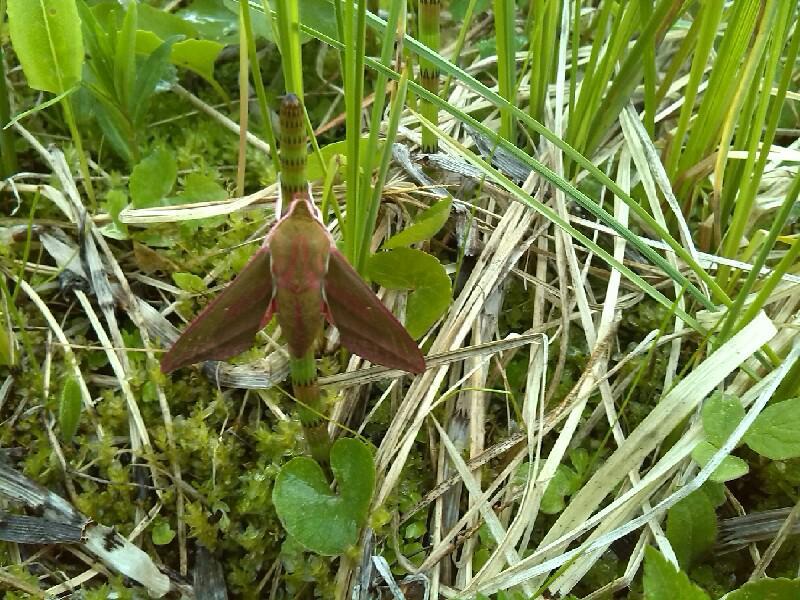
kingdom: Animalia
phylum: Arthropoda
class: Insecta
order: Lepidoptera
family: Sphingidae
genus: Deilephila
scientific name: Deilephila elpenor
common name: Elephant hawk-moth
